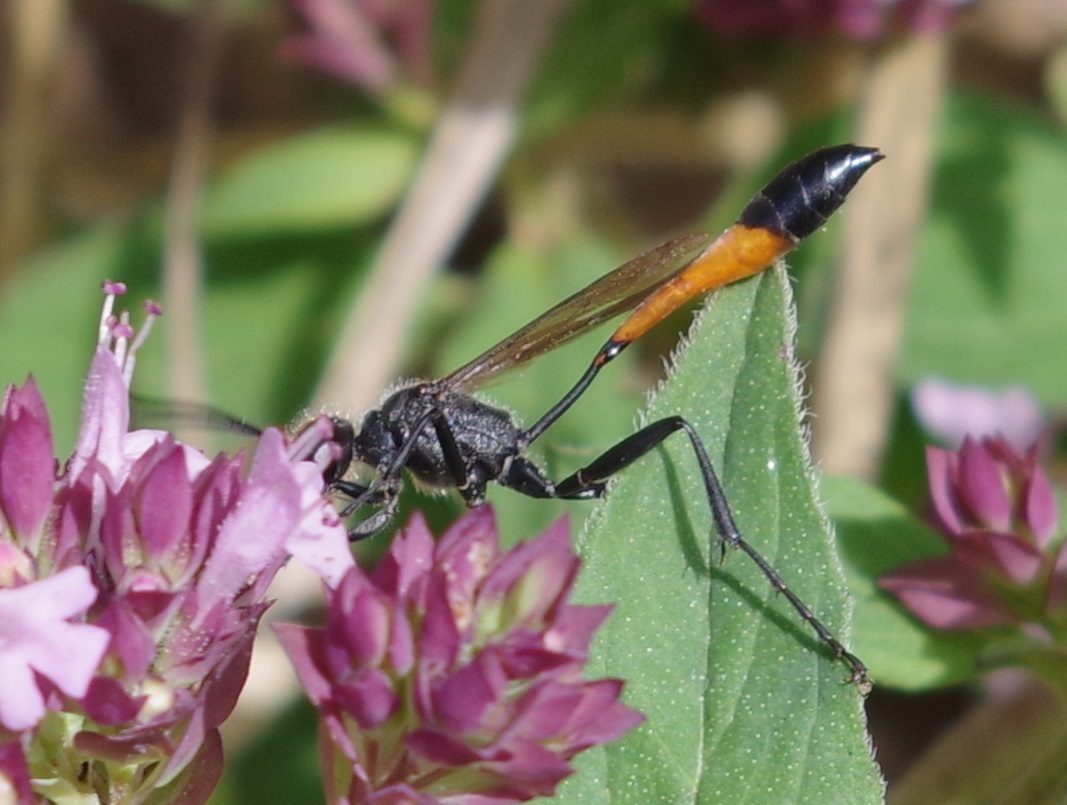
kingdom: Animalia
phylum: Arthropoda
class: Insecta
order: Hymenoptera
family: Sphecidae
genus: Ammophila
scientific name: Ammophila sabulosa
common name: Red banded sand wasp
